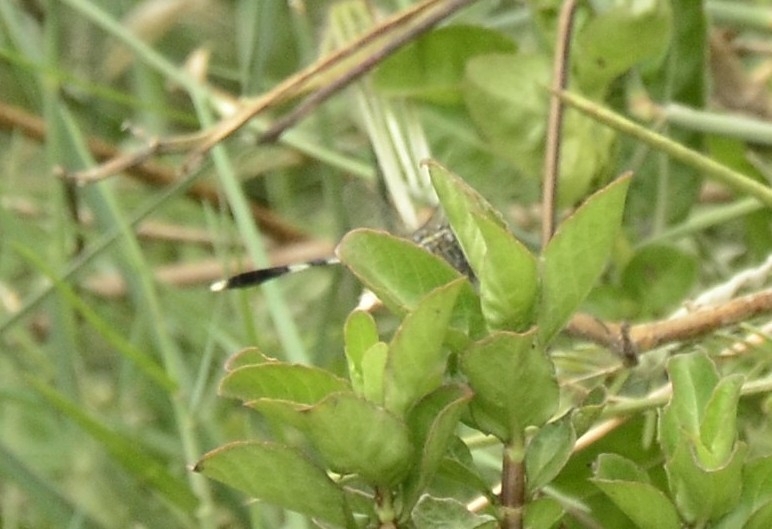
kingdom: Animalia
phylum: Arthropoda
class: Insecta
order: Odonata
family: Libellulidae
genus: Orthetrum
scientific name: Orthetrum sabina
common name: Slender skimmer
